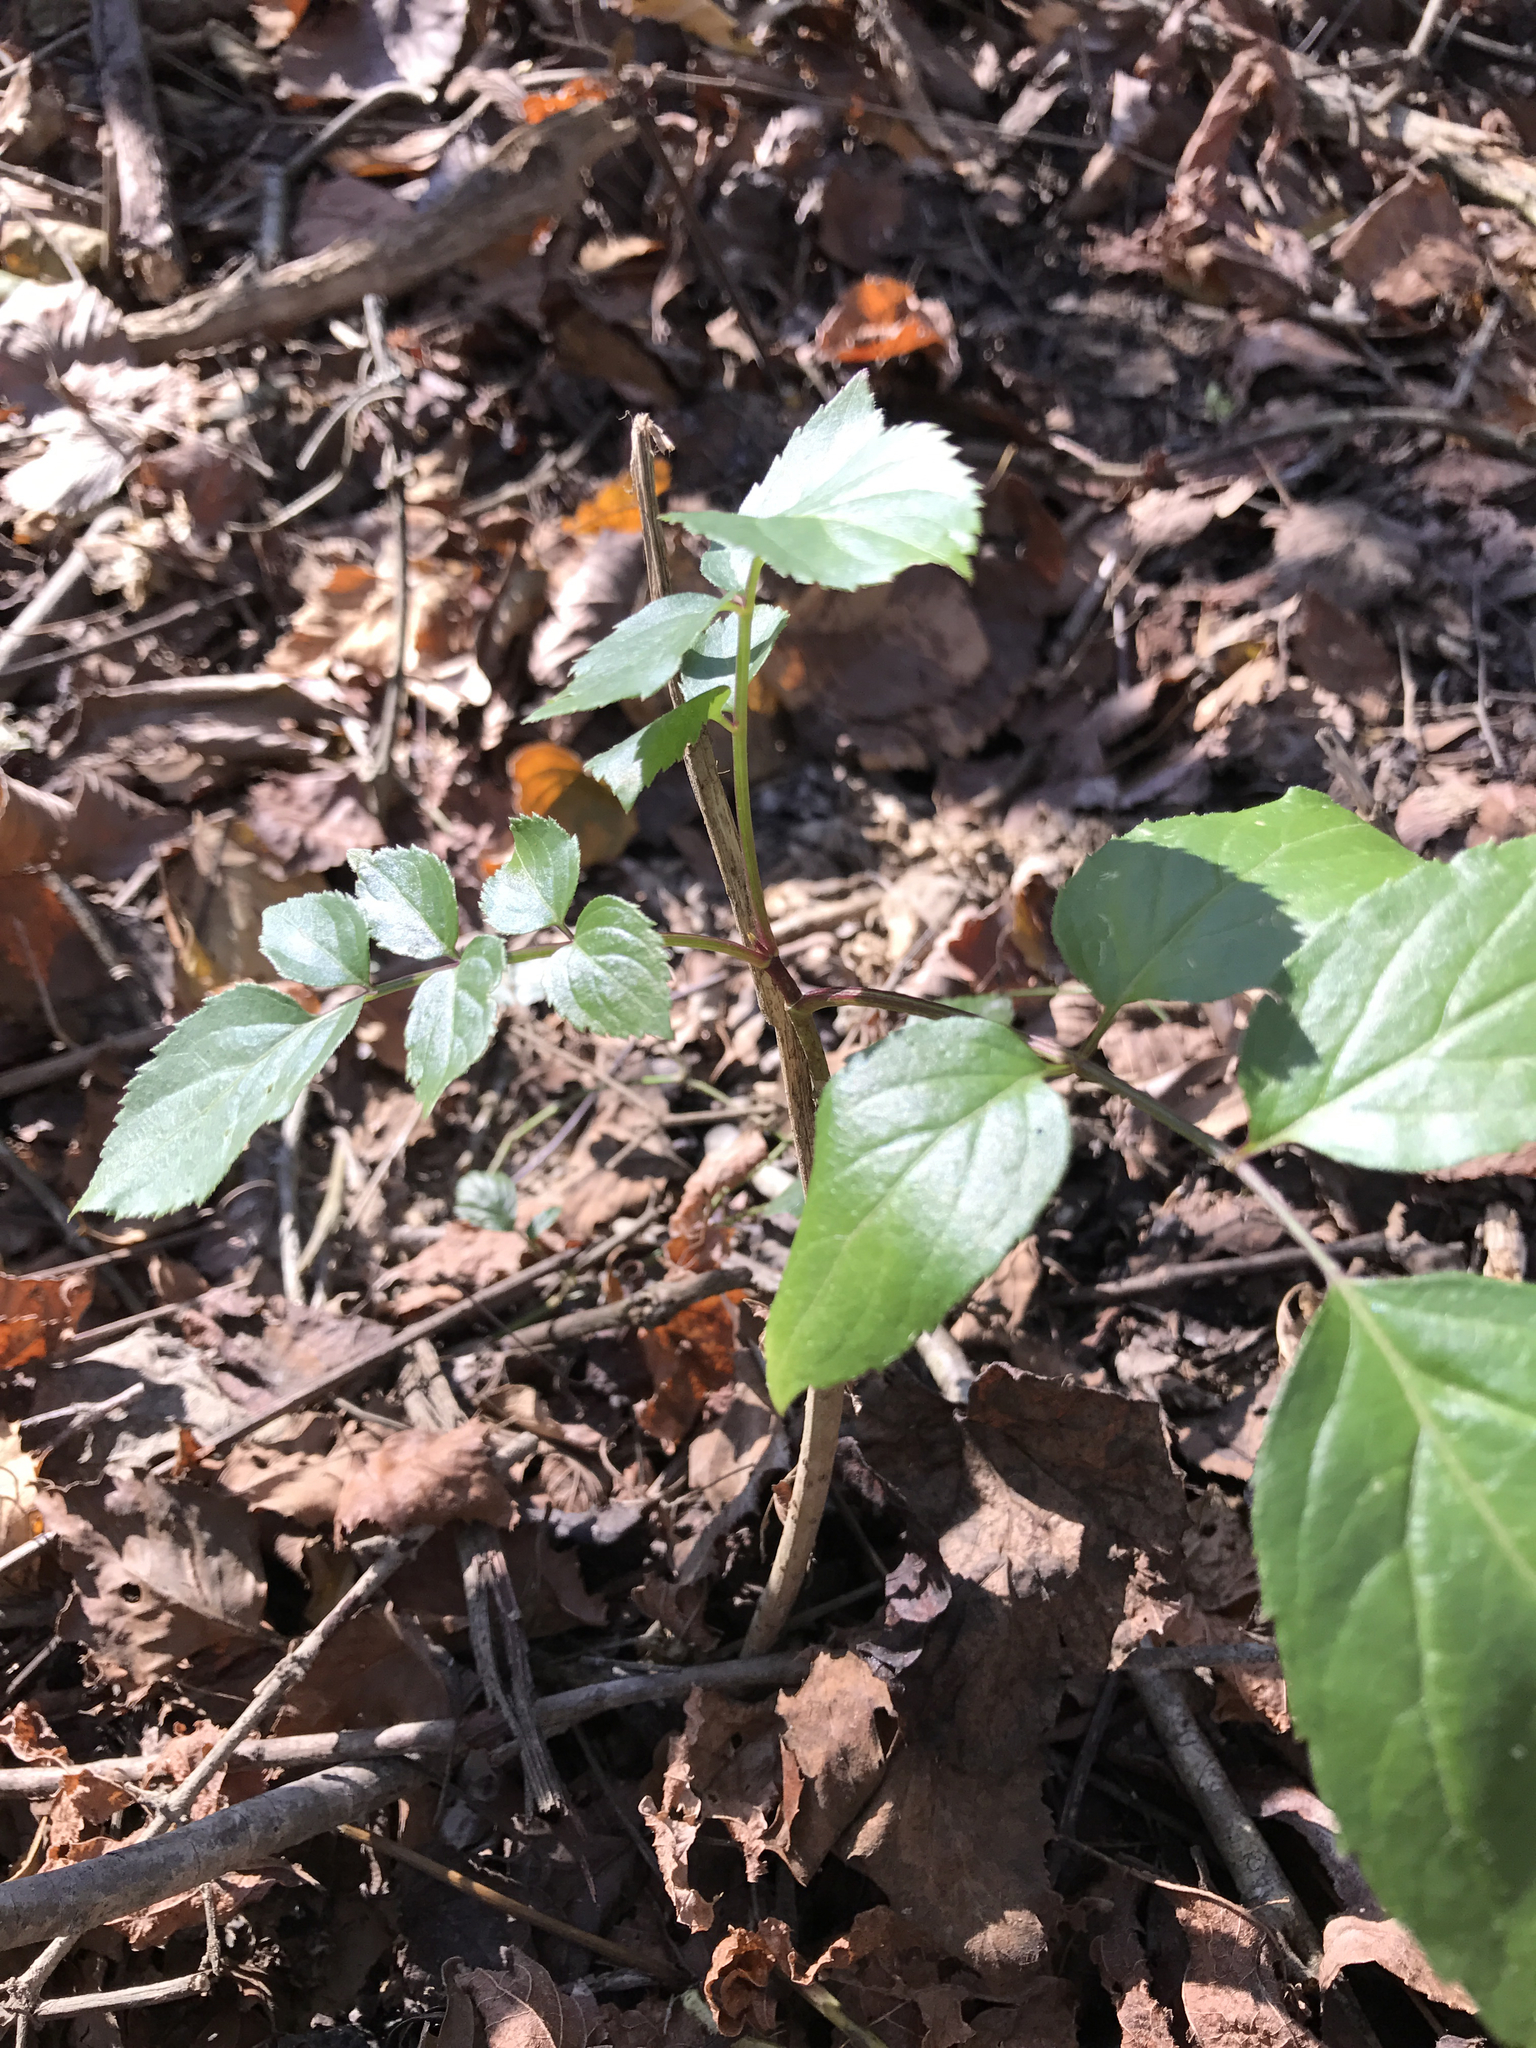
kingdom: Plantae
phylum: Tracheophyta
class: Magnoliopsida
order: Dipsacales
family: Viburnaceae
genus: Sambucus
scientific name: Sambucus canadensis
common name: American elder
